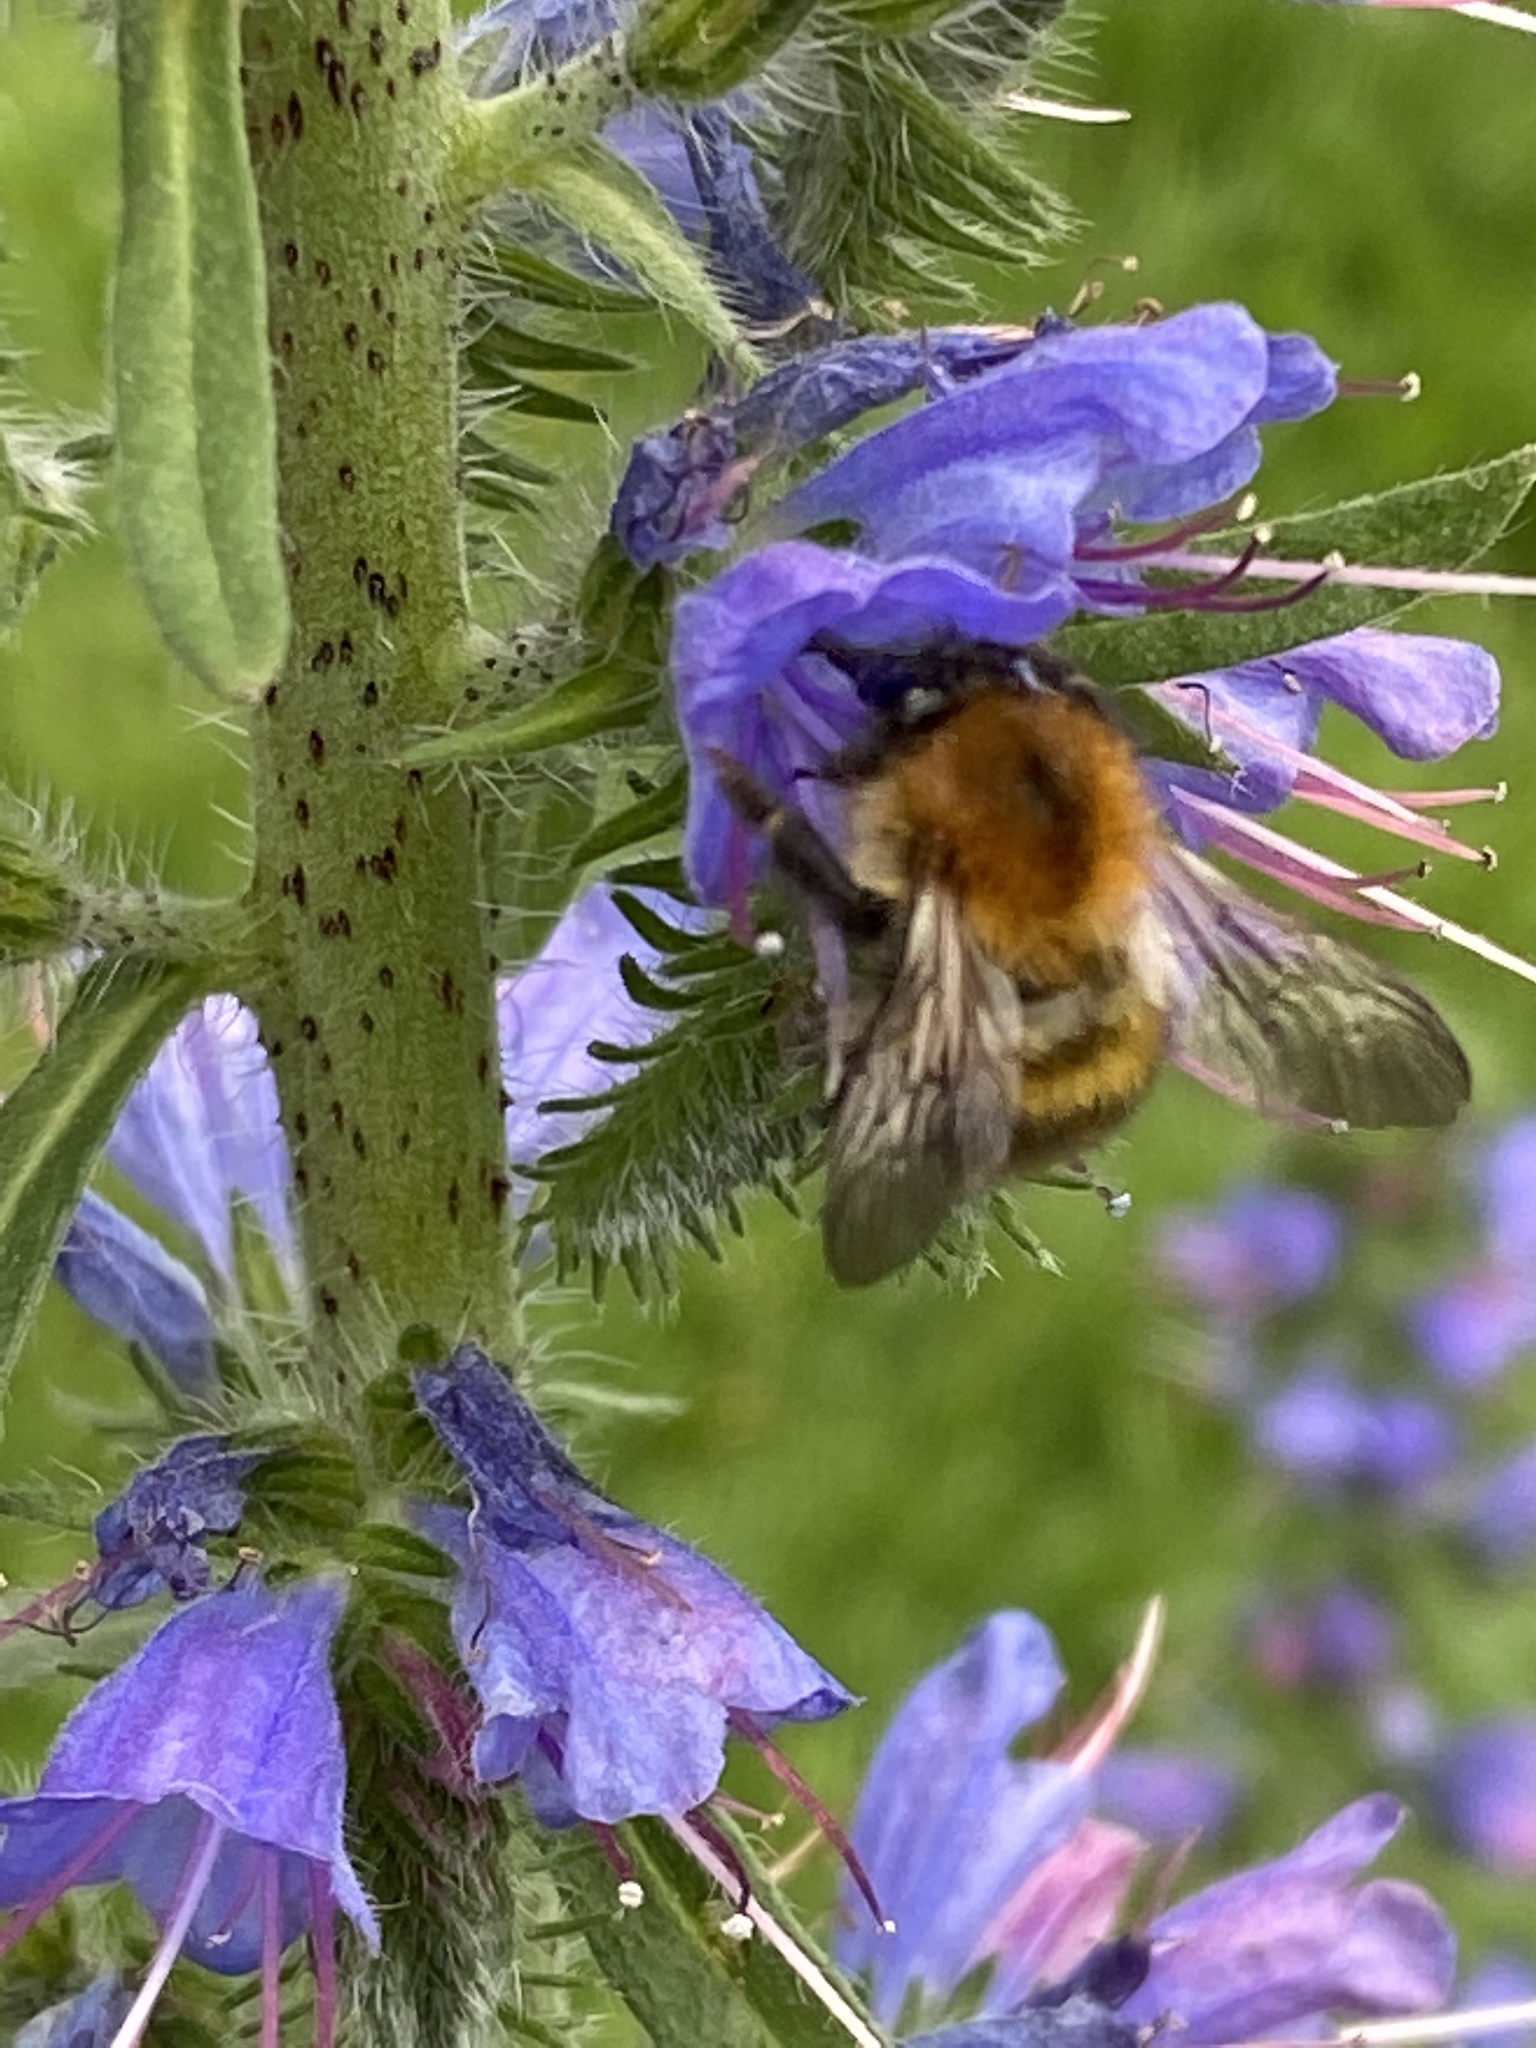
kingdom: Animalia
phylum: Arthropoda
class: Insecta
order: Hymenoptera
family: Apidae
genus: Bombus
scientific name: Bombus pascuorum
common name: Common carder bee
